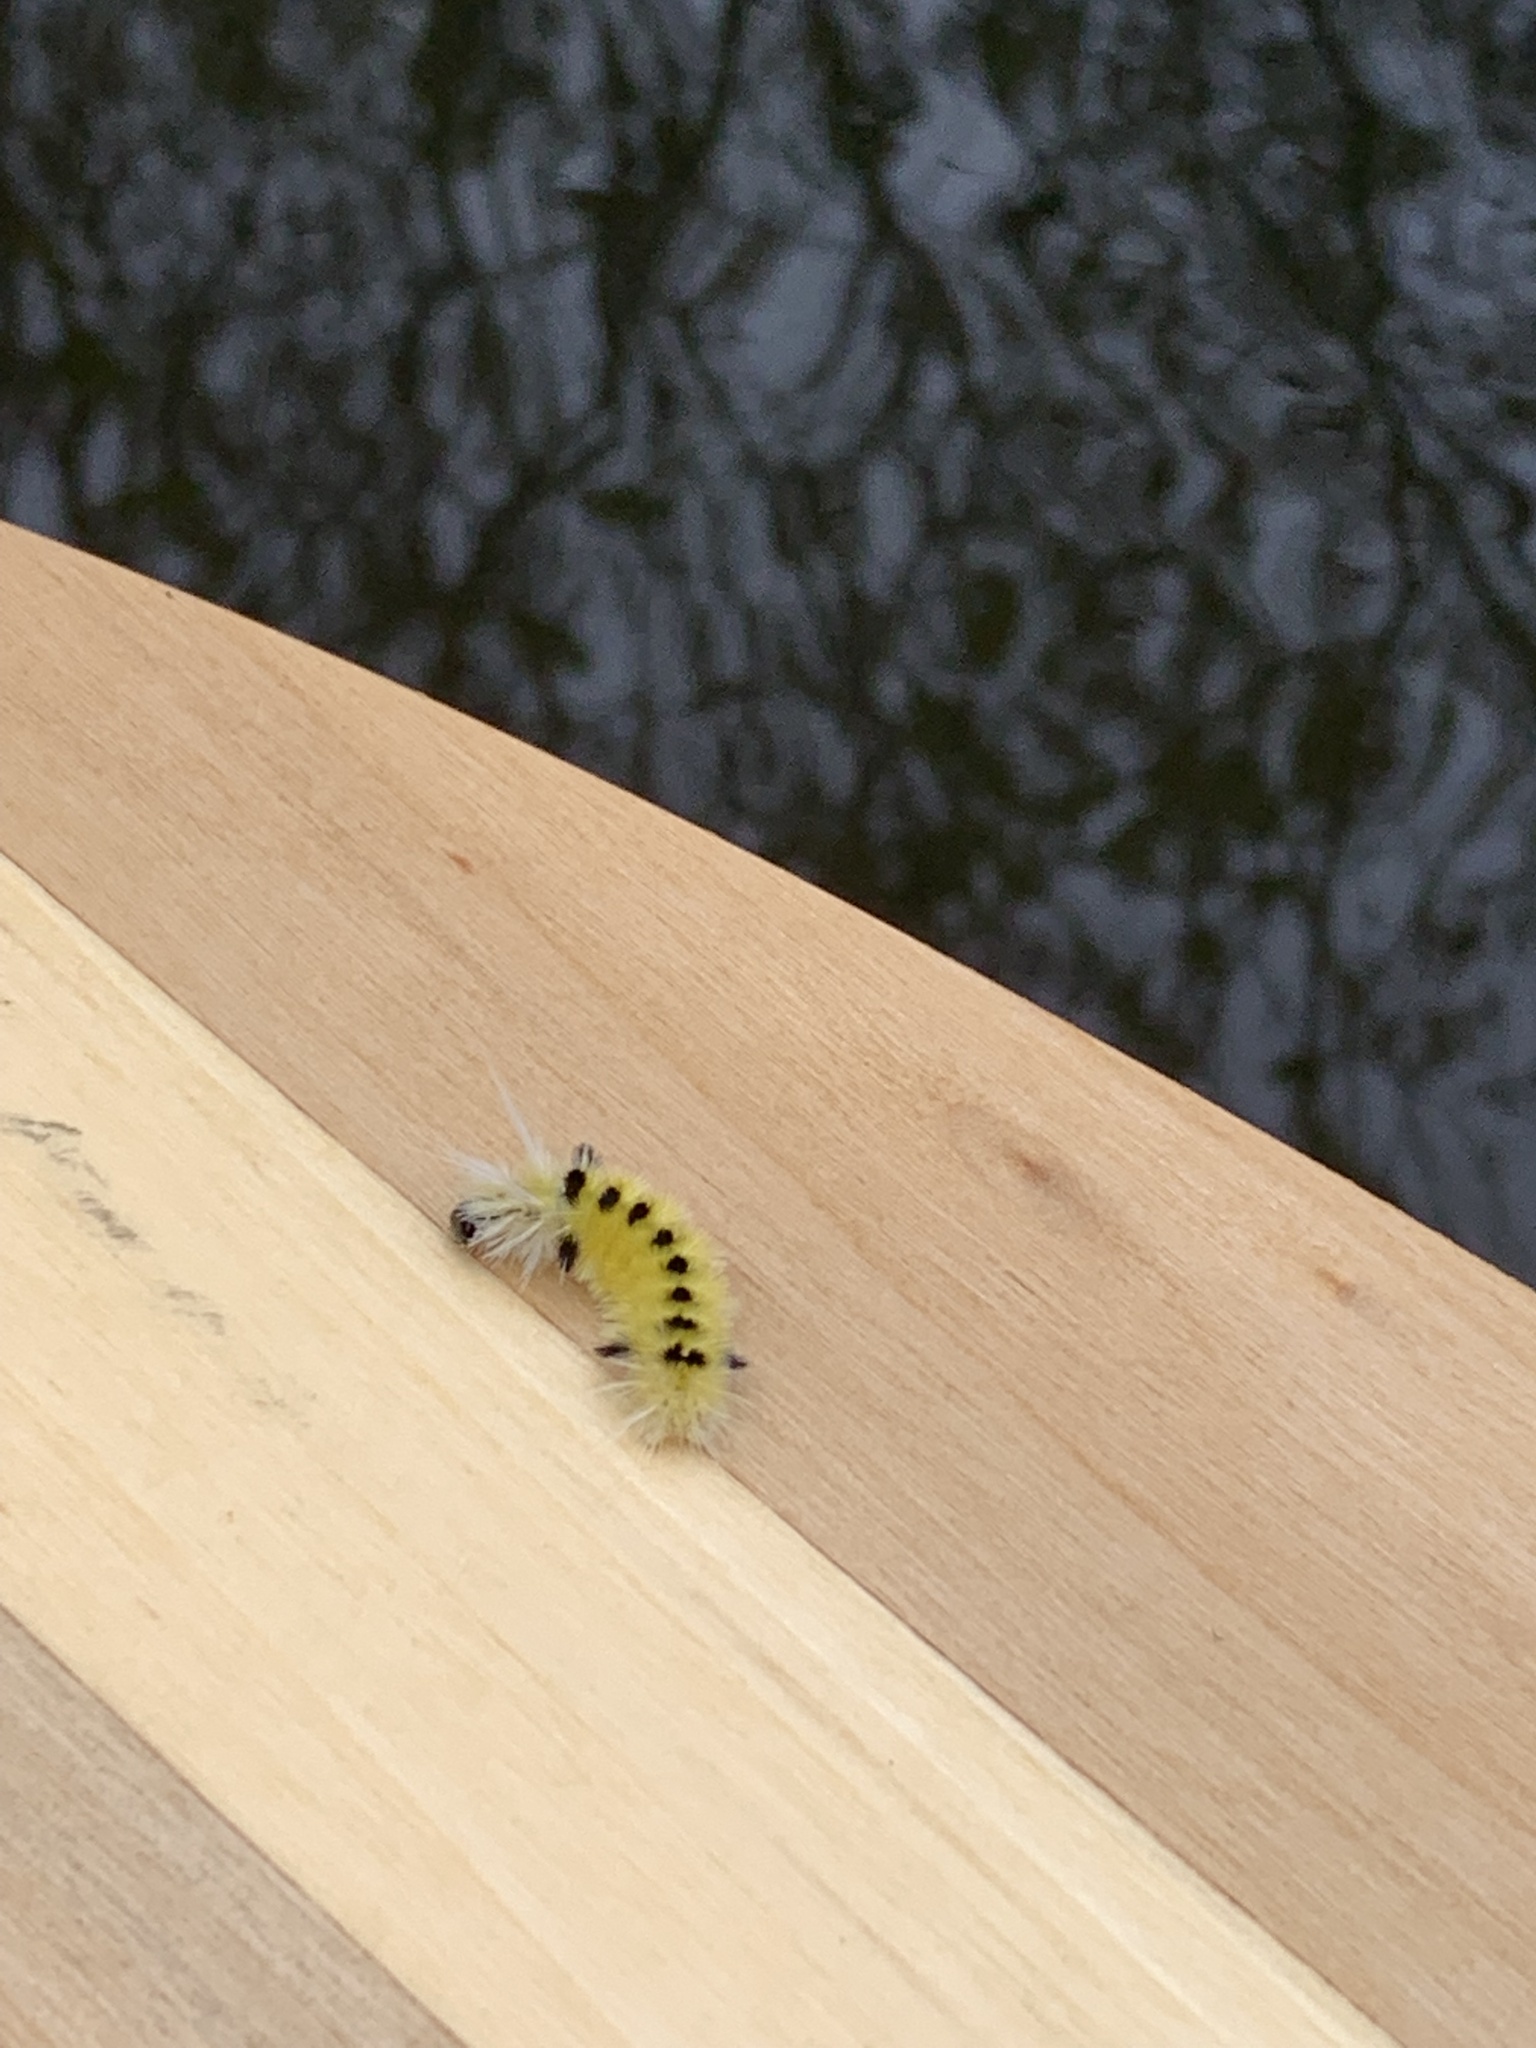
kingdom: Animalia
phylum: Arthropoda
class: Insecta
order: Lepidoptera
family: Erebidae
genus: Lophocampa
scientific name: Lophocampa maculata
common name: Spotted tussock moth
